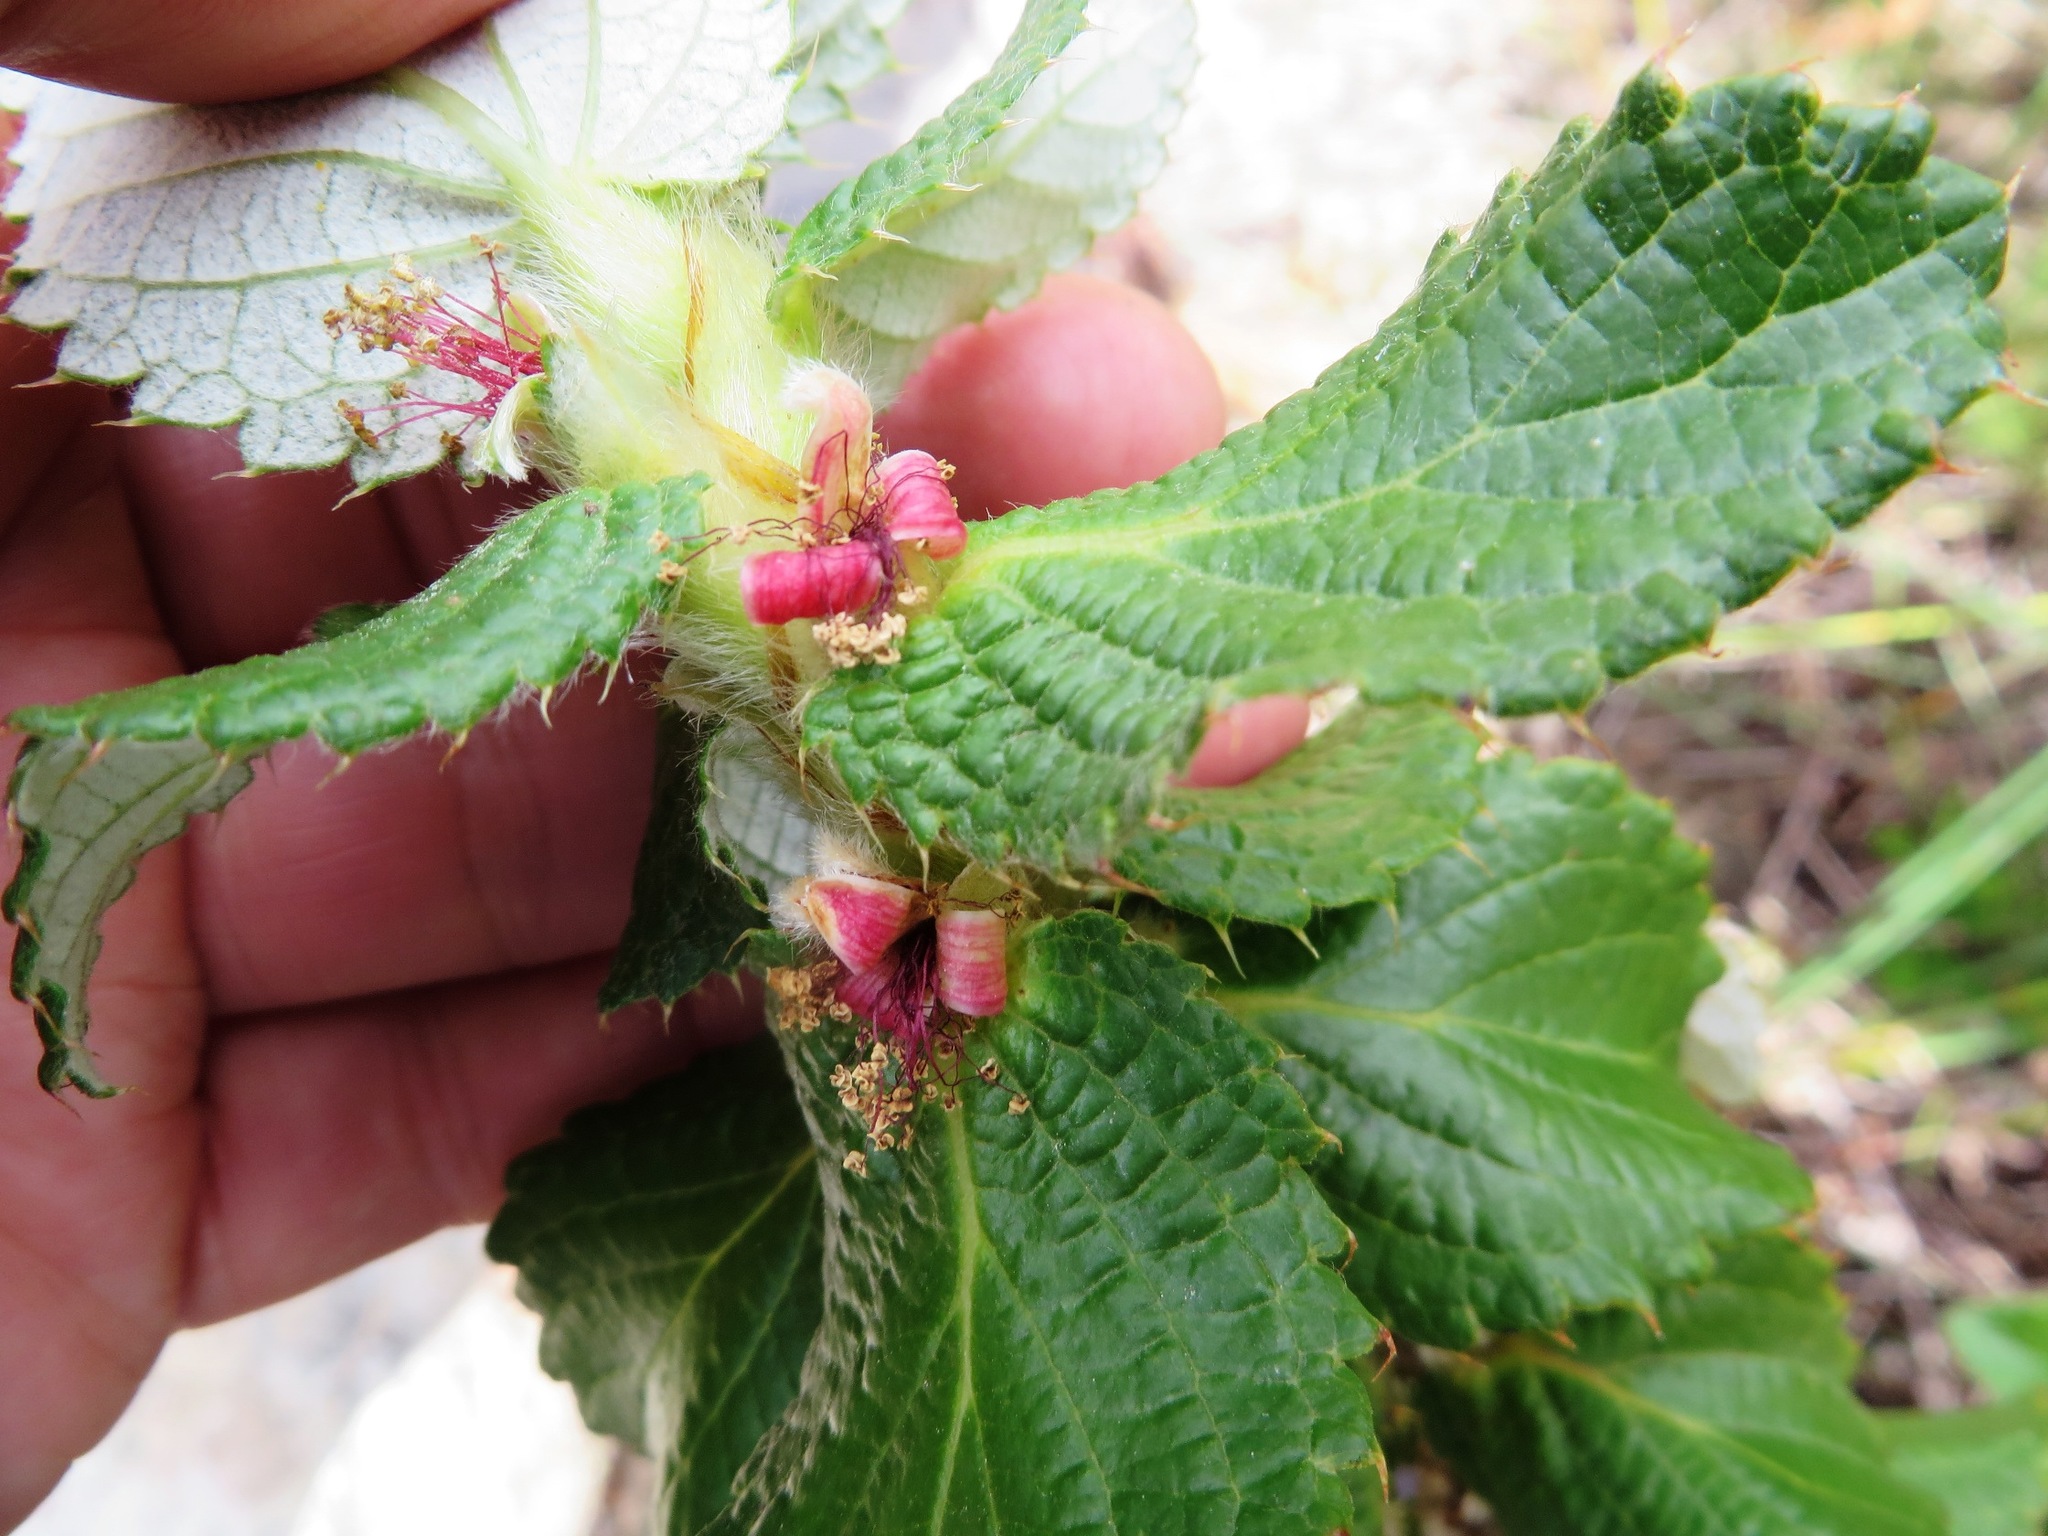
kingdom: Plantae
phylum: Tracheophyta
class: Magnoliopsida
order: Rosales
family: Rosaceae
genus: Cliffortia
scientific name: Cliffortia hirsuta
